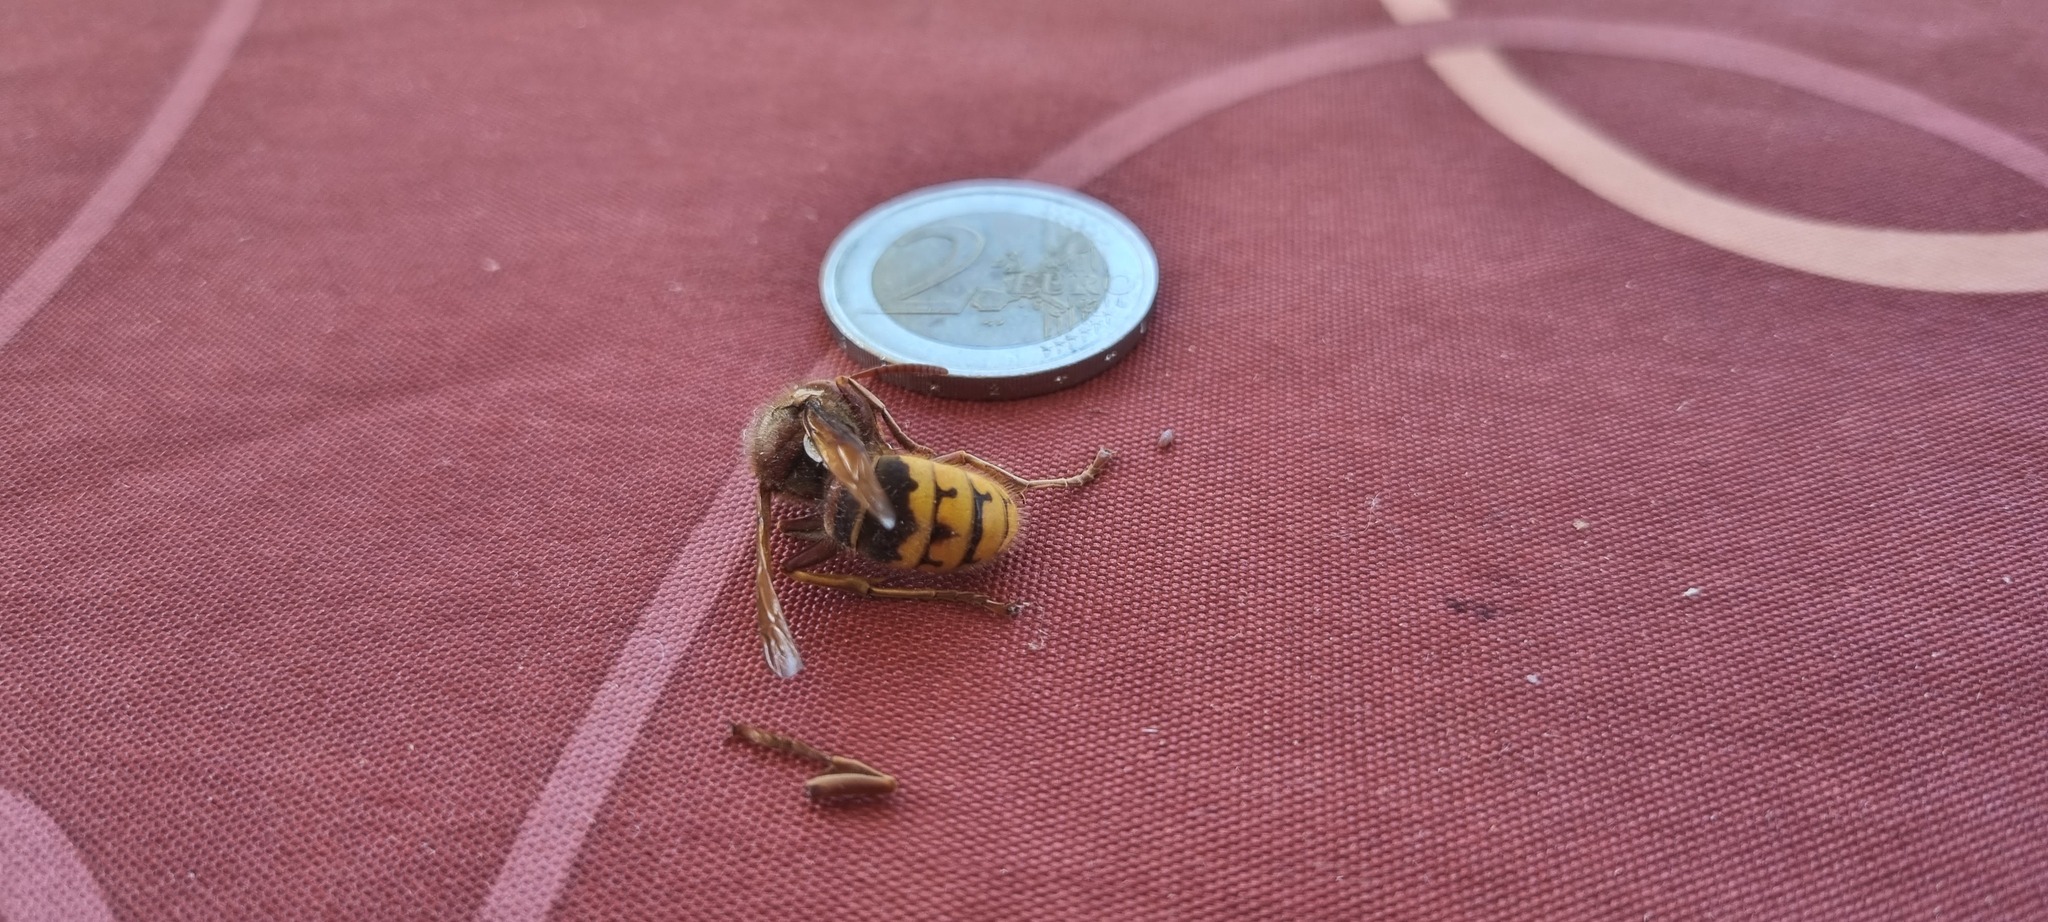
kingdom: Animalia
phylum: Arthropoda
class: Insecta
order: Hymenoptera
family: Vespidae
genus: Vespa
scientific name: Vespa crabro
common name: Hornet
